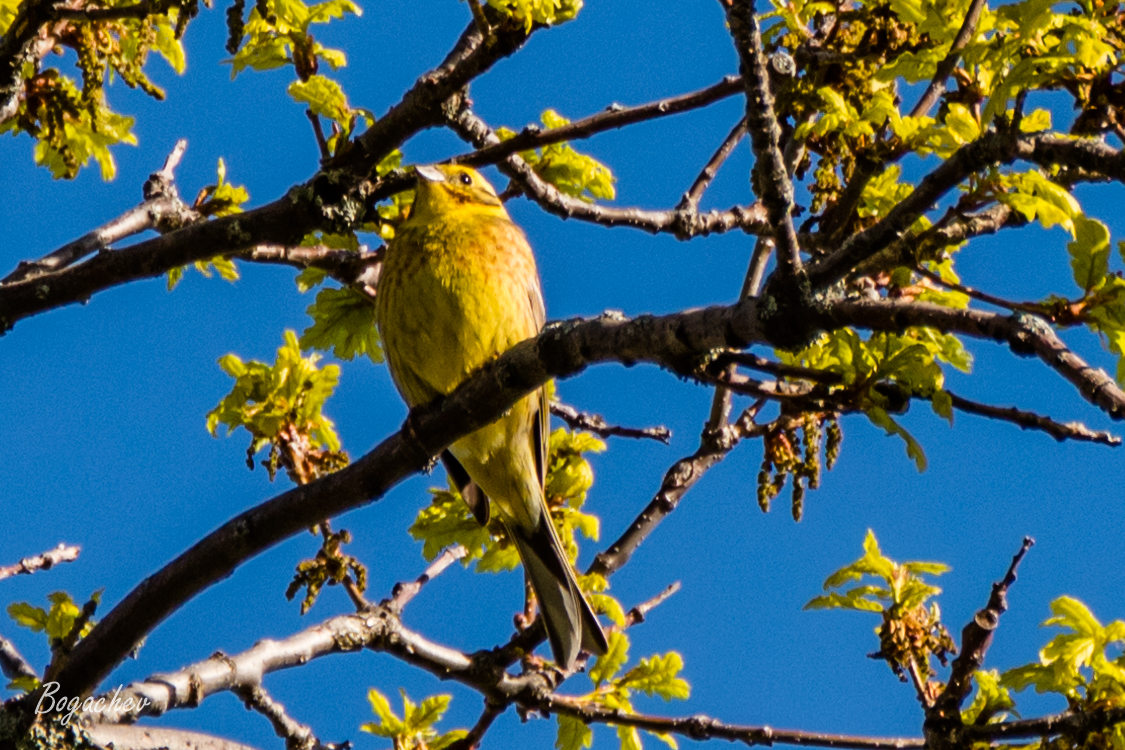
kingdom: Animalia
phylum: Chordata
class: Aves
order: Passeriformes
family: Emberizidae
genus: Emberiza
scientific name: Emberiza citrinella
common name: Yellowhammer
